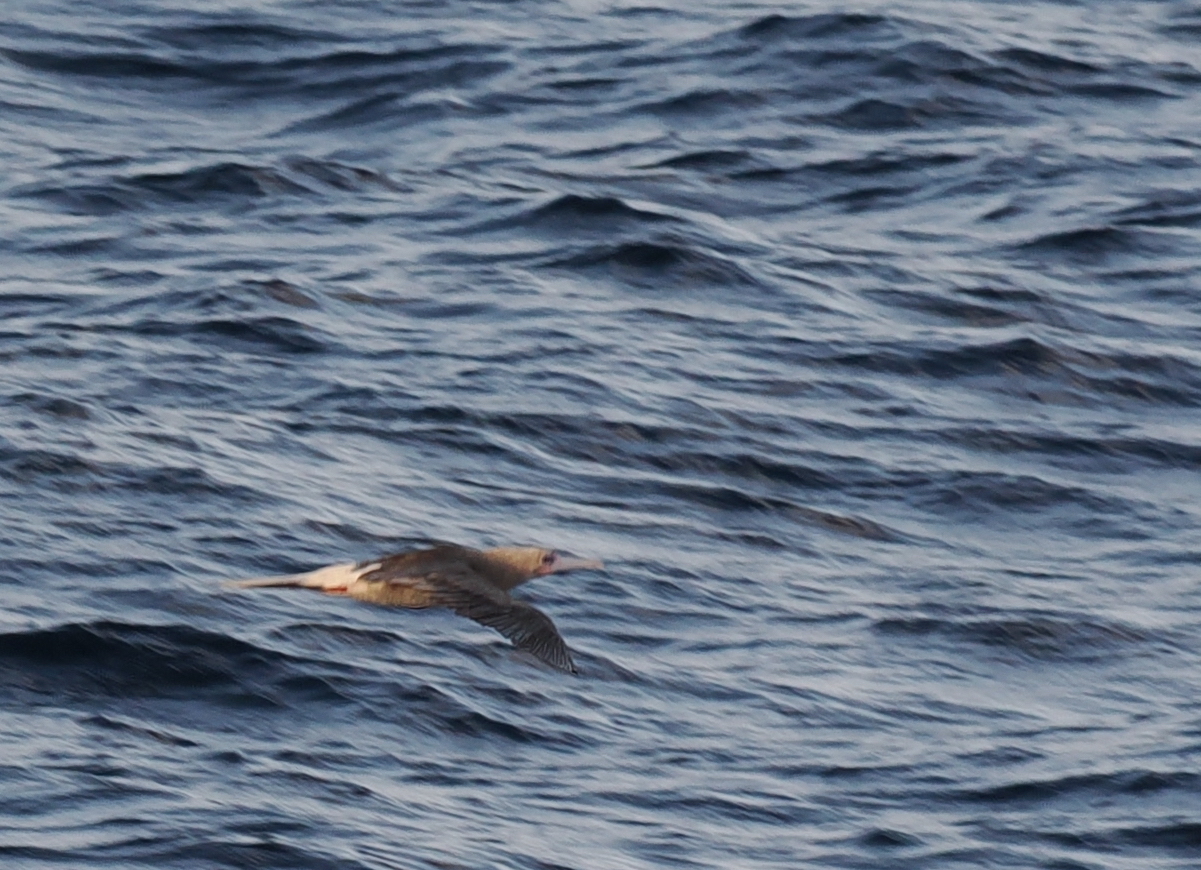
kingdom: Animalia
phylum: Chordata
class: Aves
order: Suliformes
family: Sulidae
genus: Sula
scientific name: Sula sula
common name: Red-footed booby
